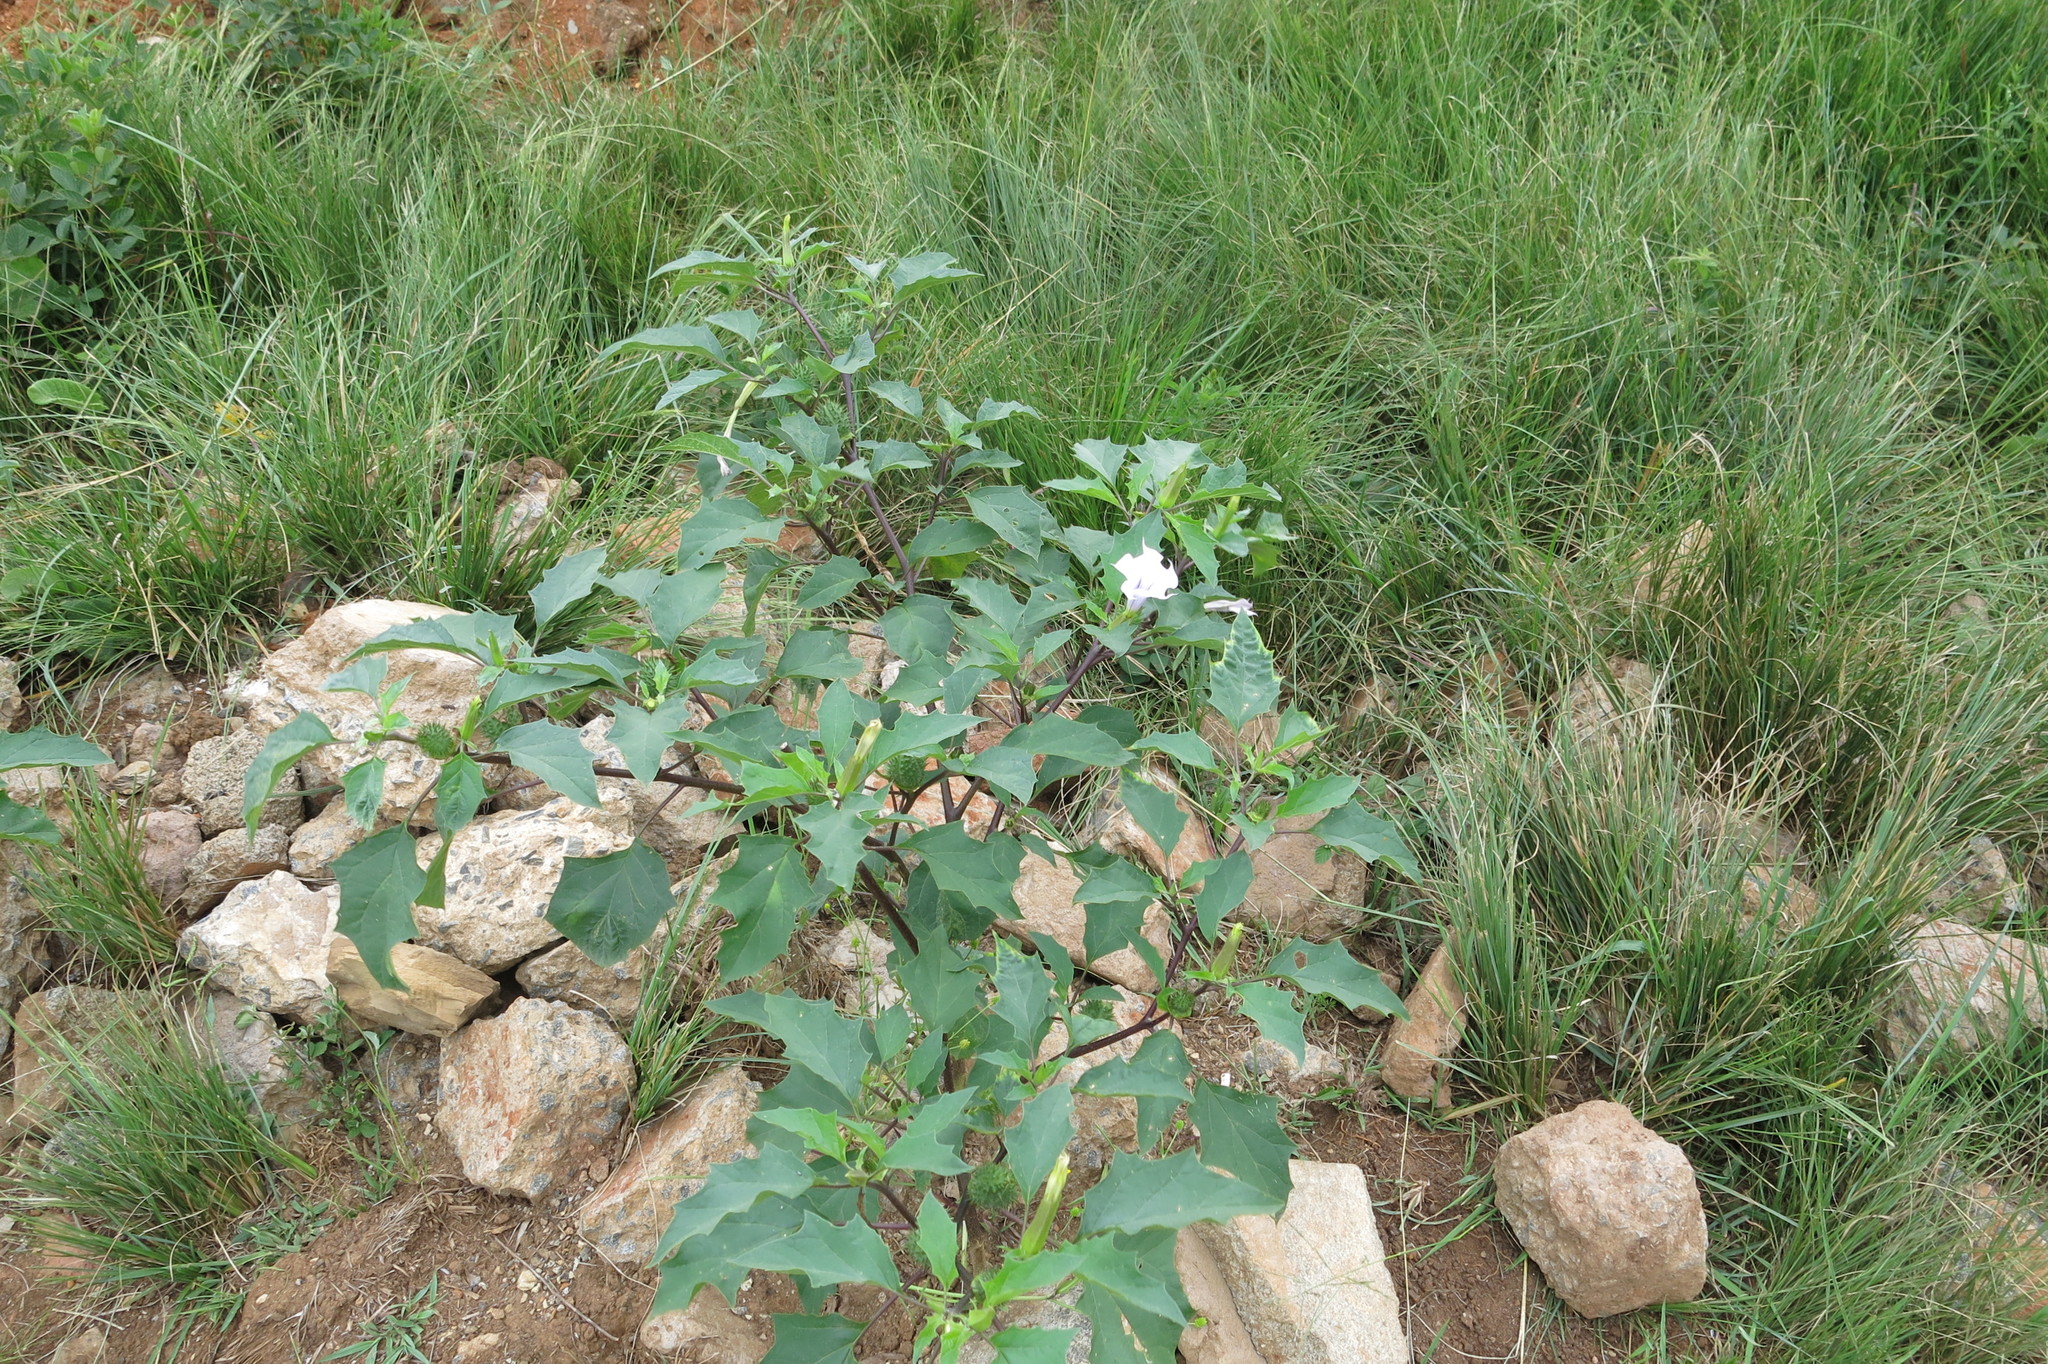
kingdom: Plantae
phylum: Tracheophyta
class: Magnoliopsida
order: Solanales
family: Solanaceae
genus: Datura
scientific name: Datura stramonium
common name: Thorn-apple
